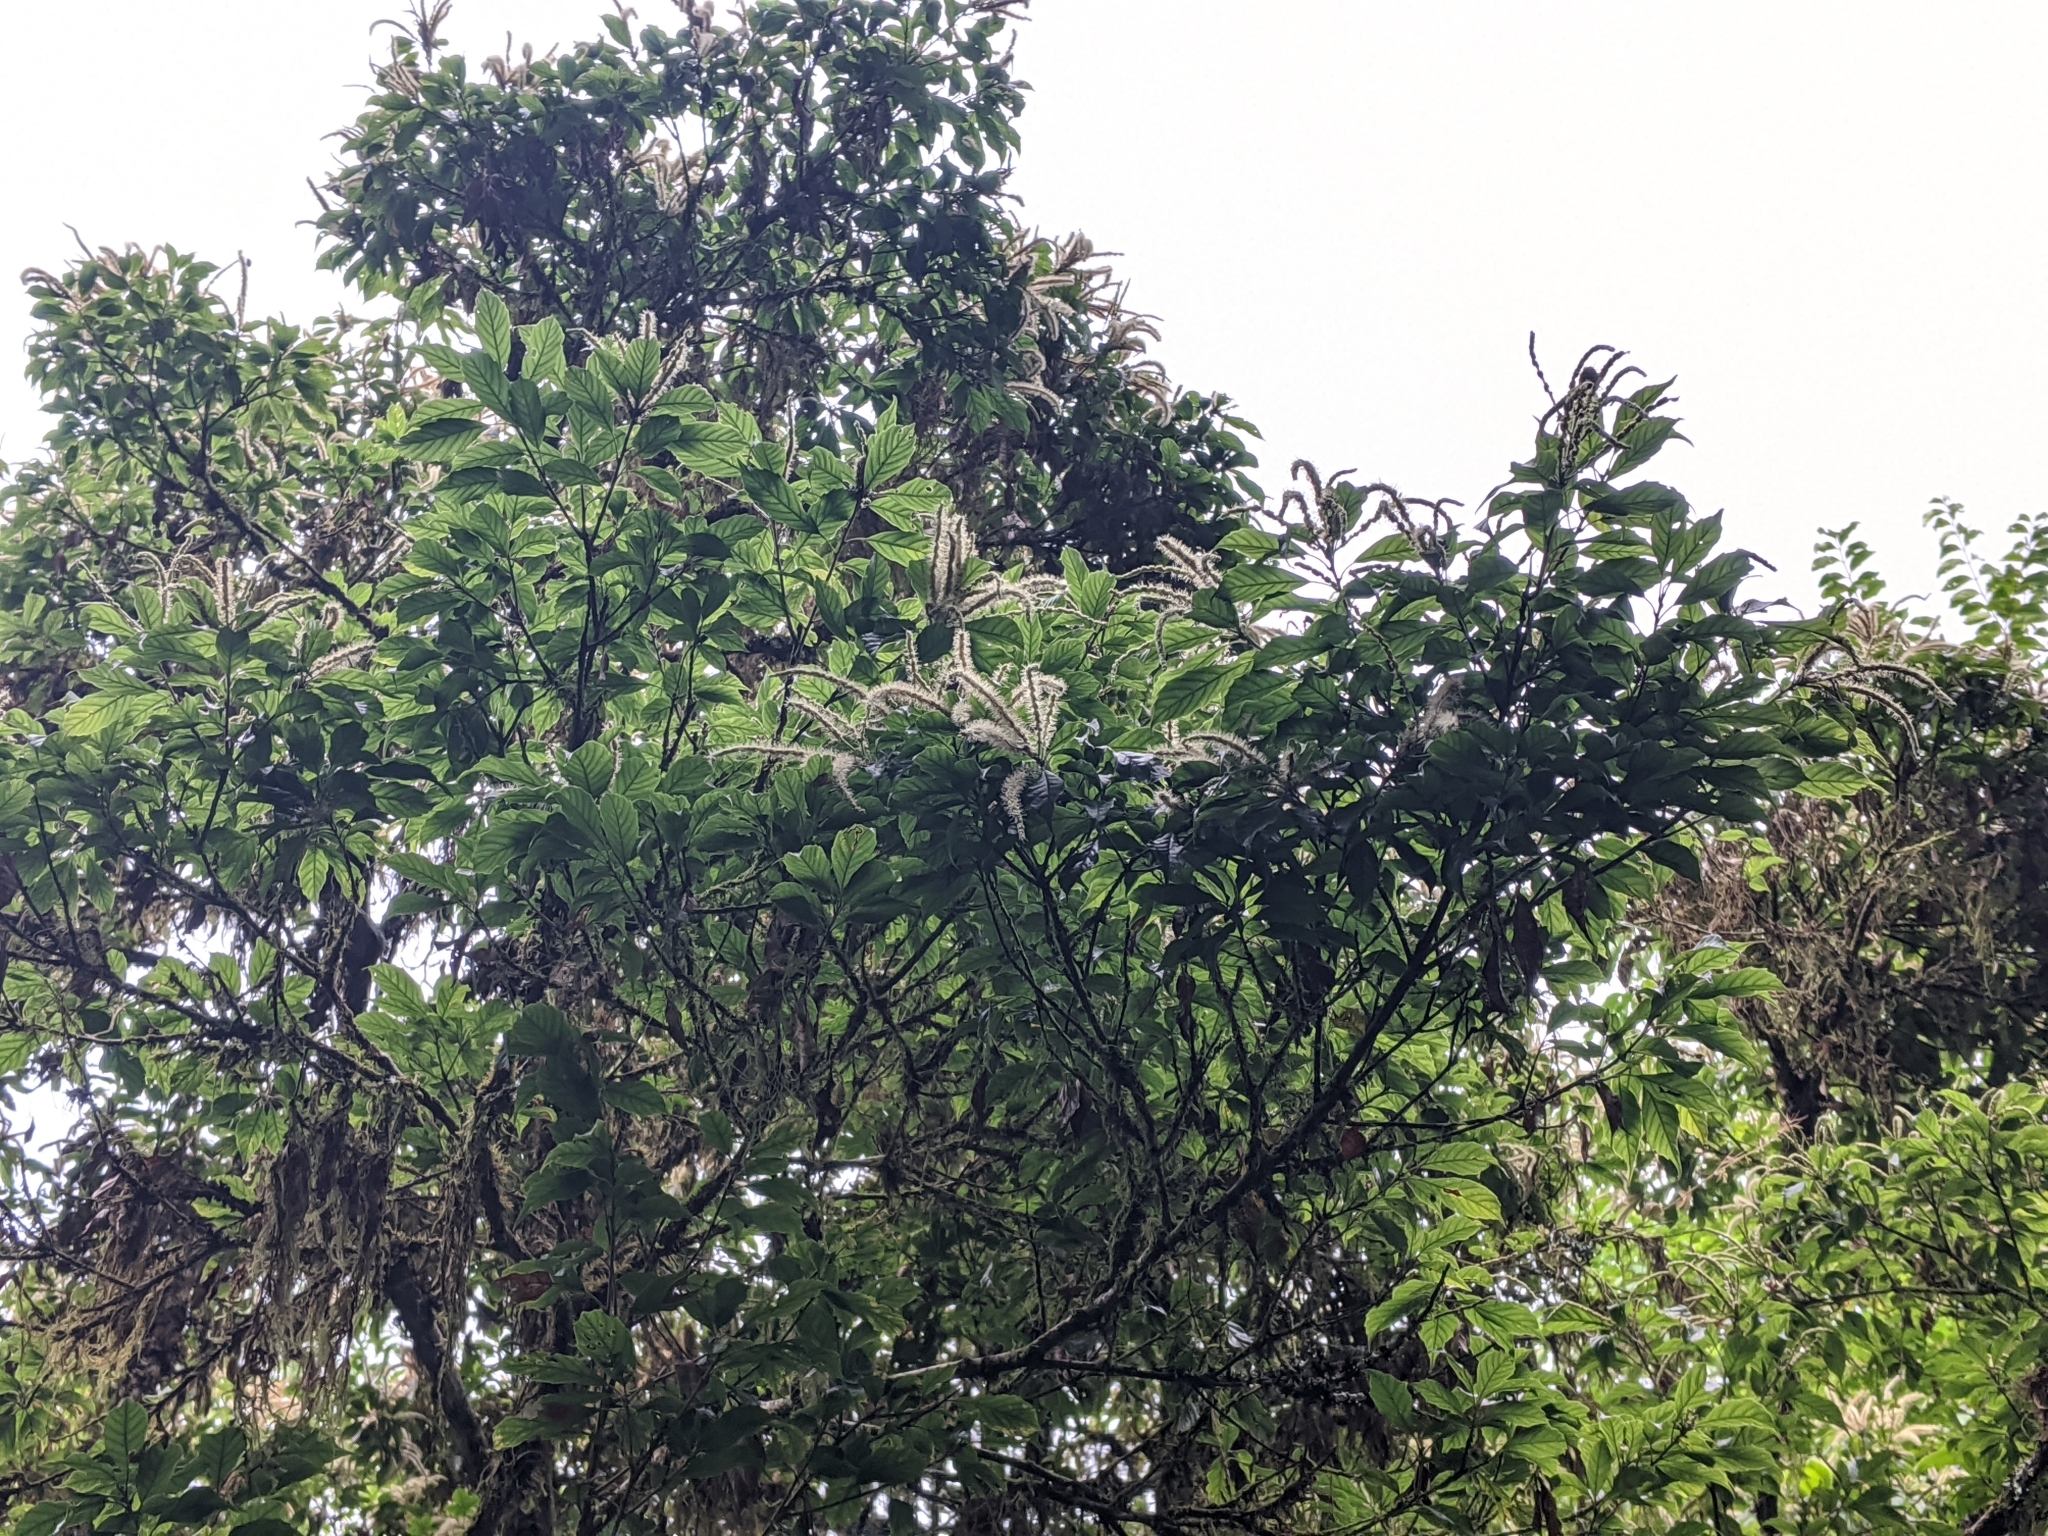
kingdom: Plantae
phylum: Tracheophyta
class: Magnoliopsida
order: Fagales
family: Fagaceae
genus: Lithocarpus
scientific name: Lithocarpus corneus
